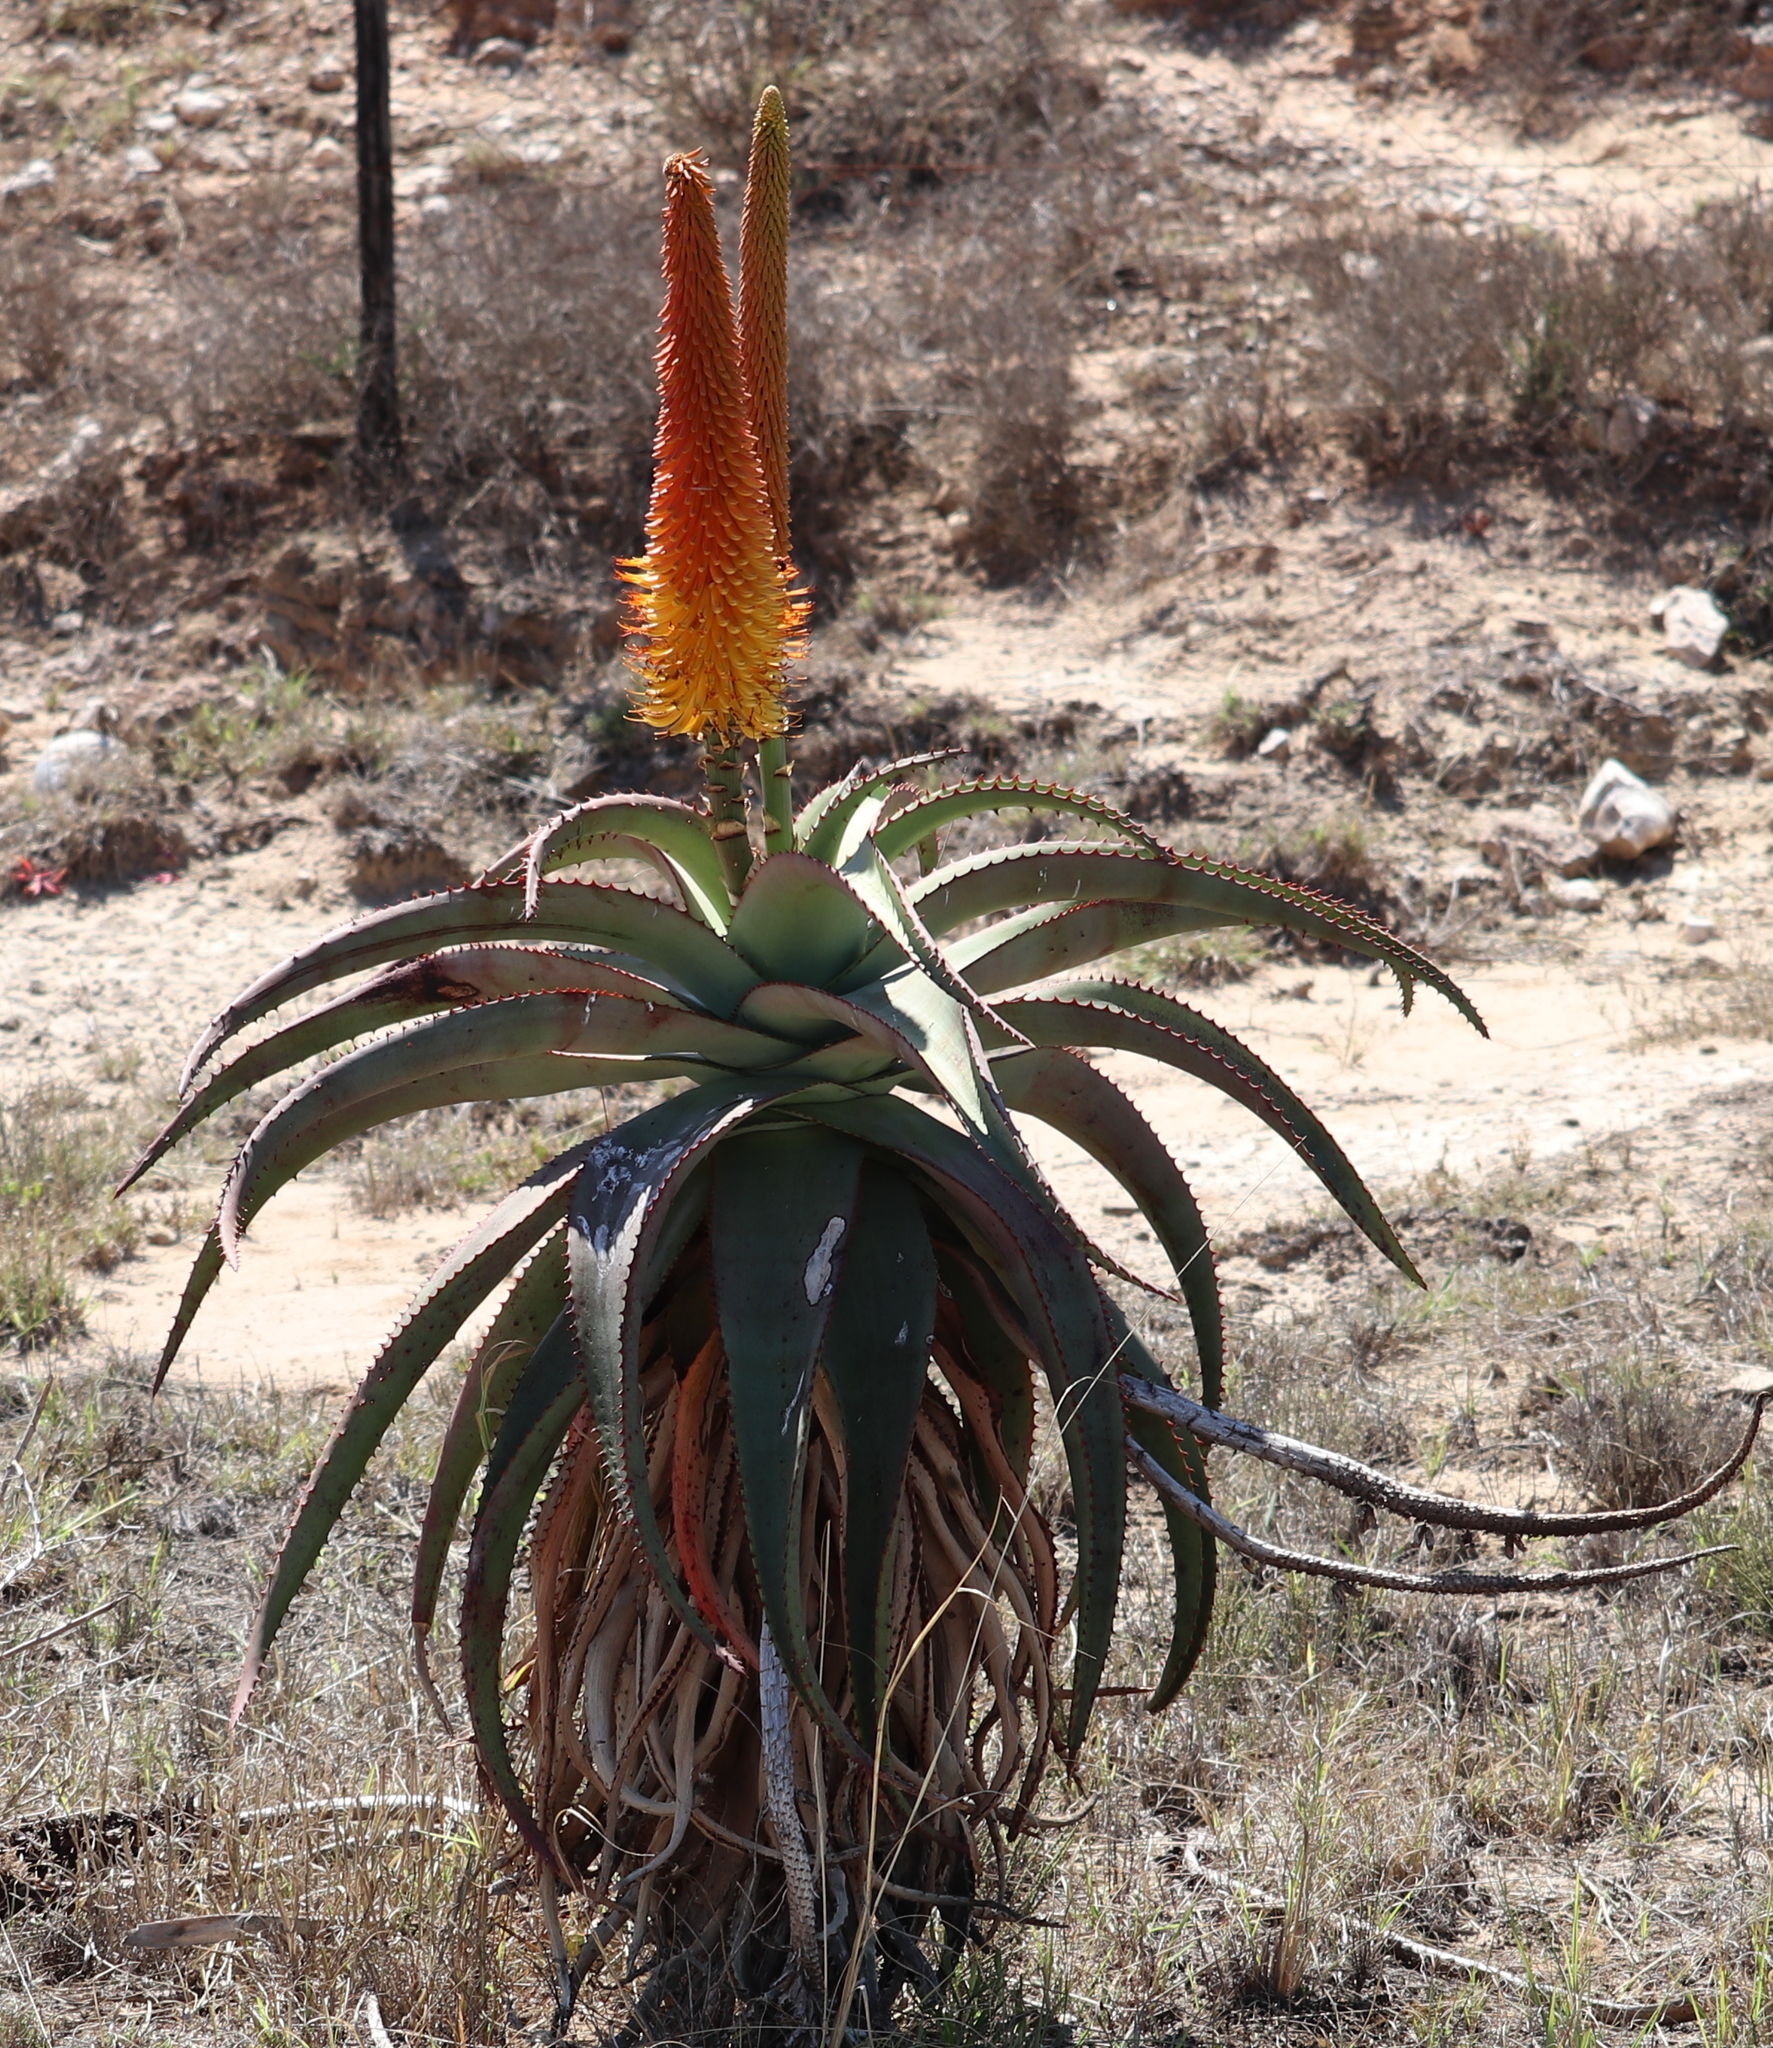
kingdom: Plantae
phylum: Tracheophyta
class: Liliopsida
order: Asparagales
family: Asphodelaceae
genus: Aloe
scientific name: Aloe africana
